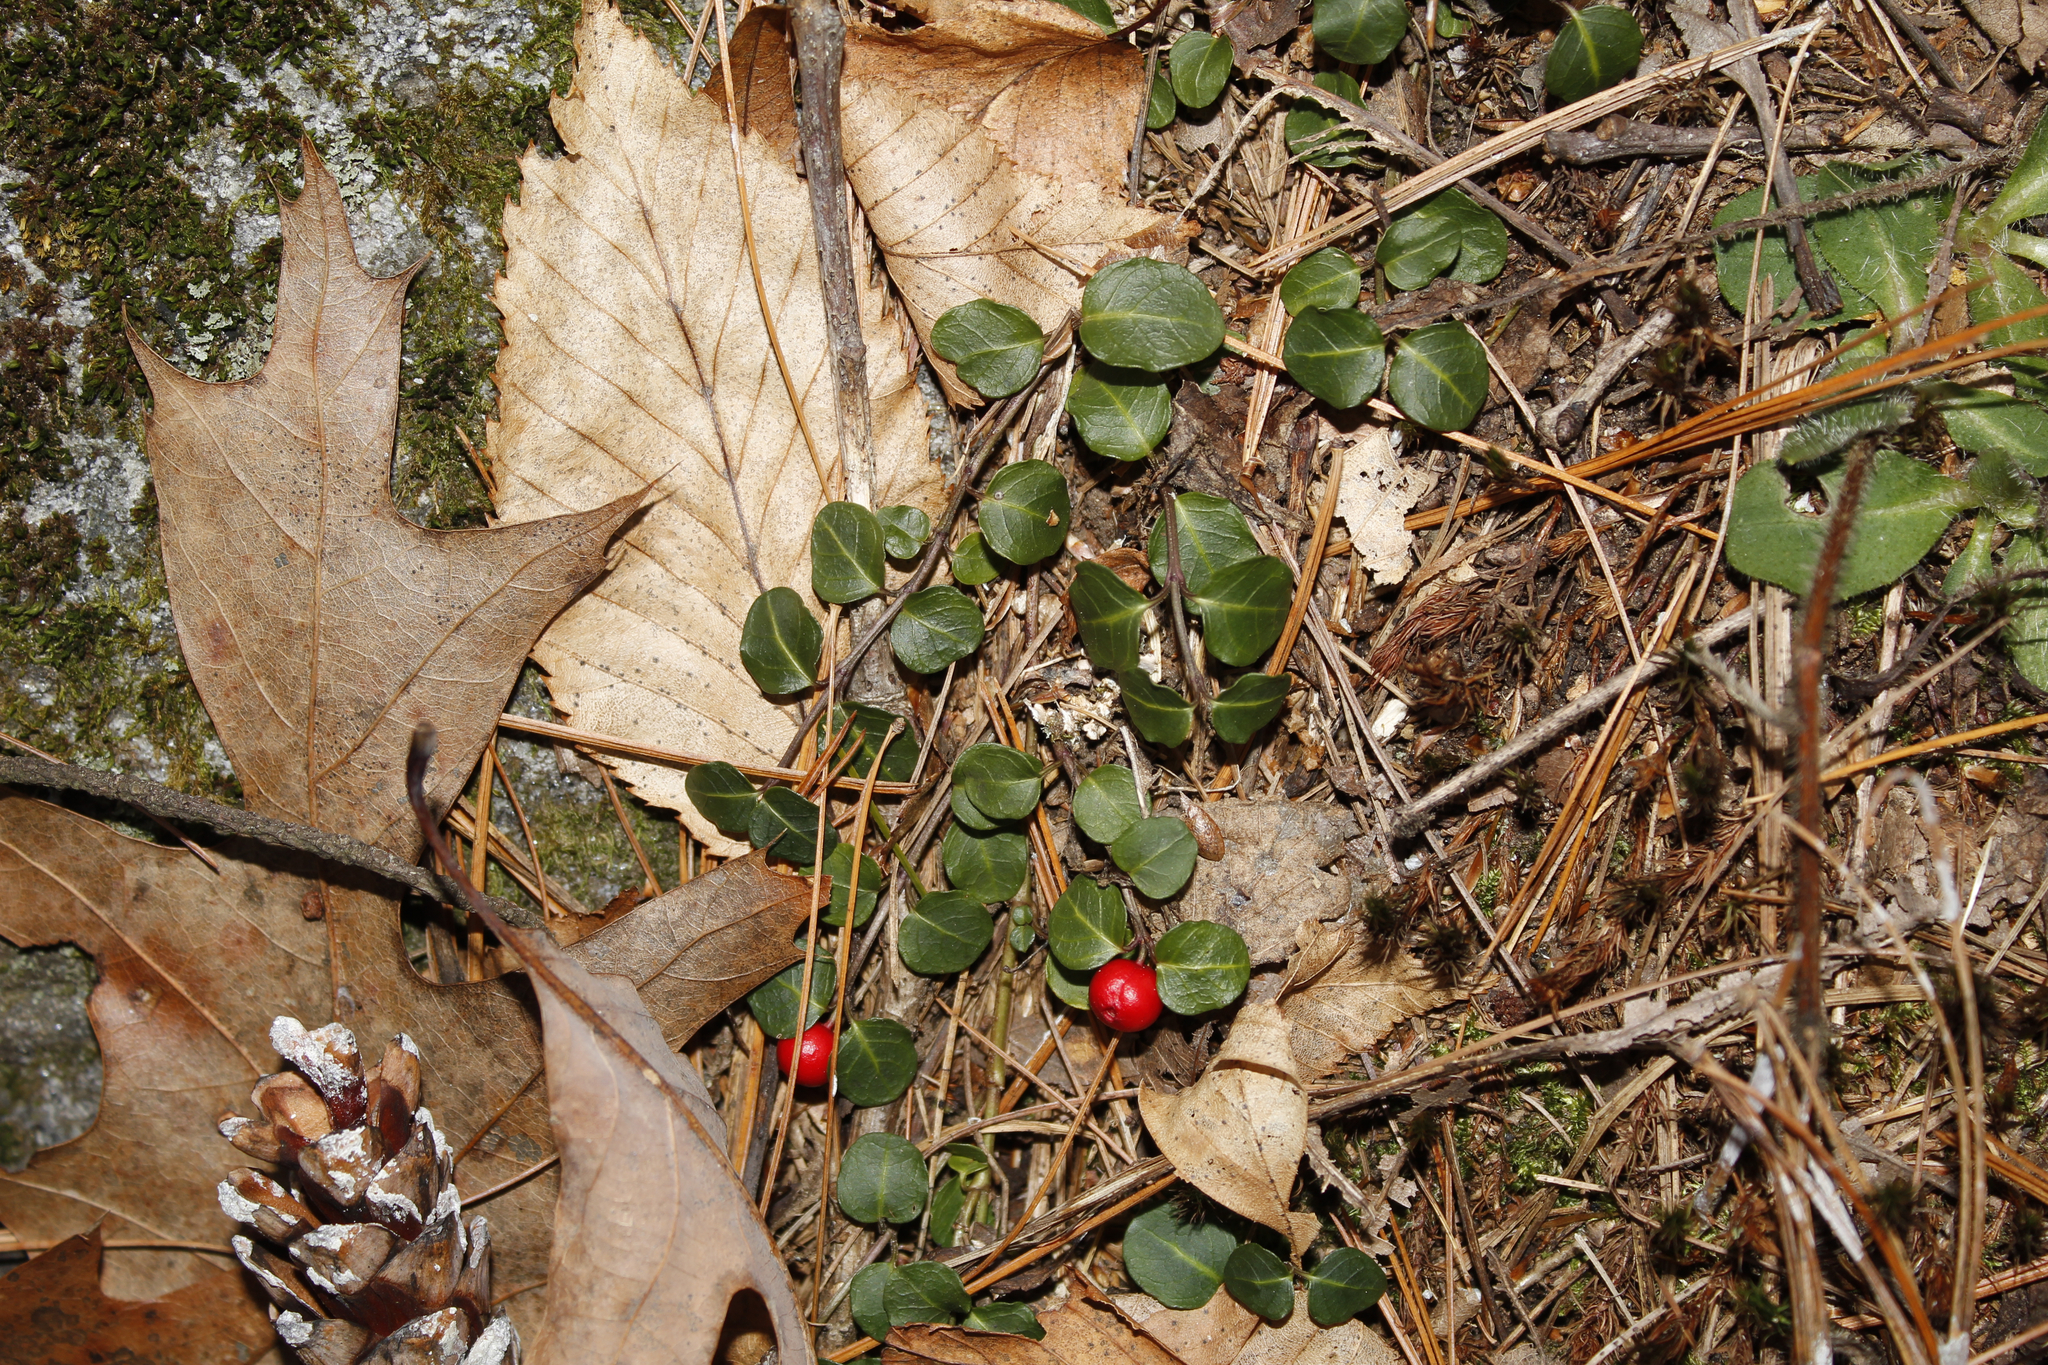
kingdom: Plantae
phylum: Tracheophyta
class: Magnoliopsida
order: Gentianales
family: Rubiaceae
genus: Mitchella
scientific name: Mitchella repens
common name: Partridge-berry
